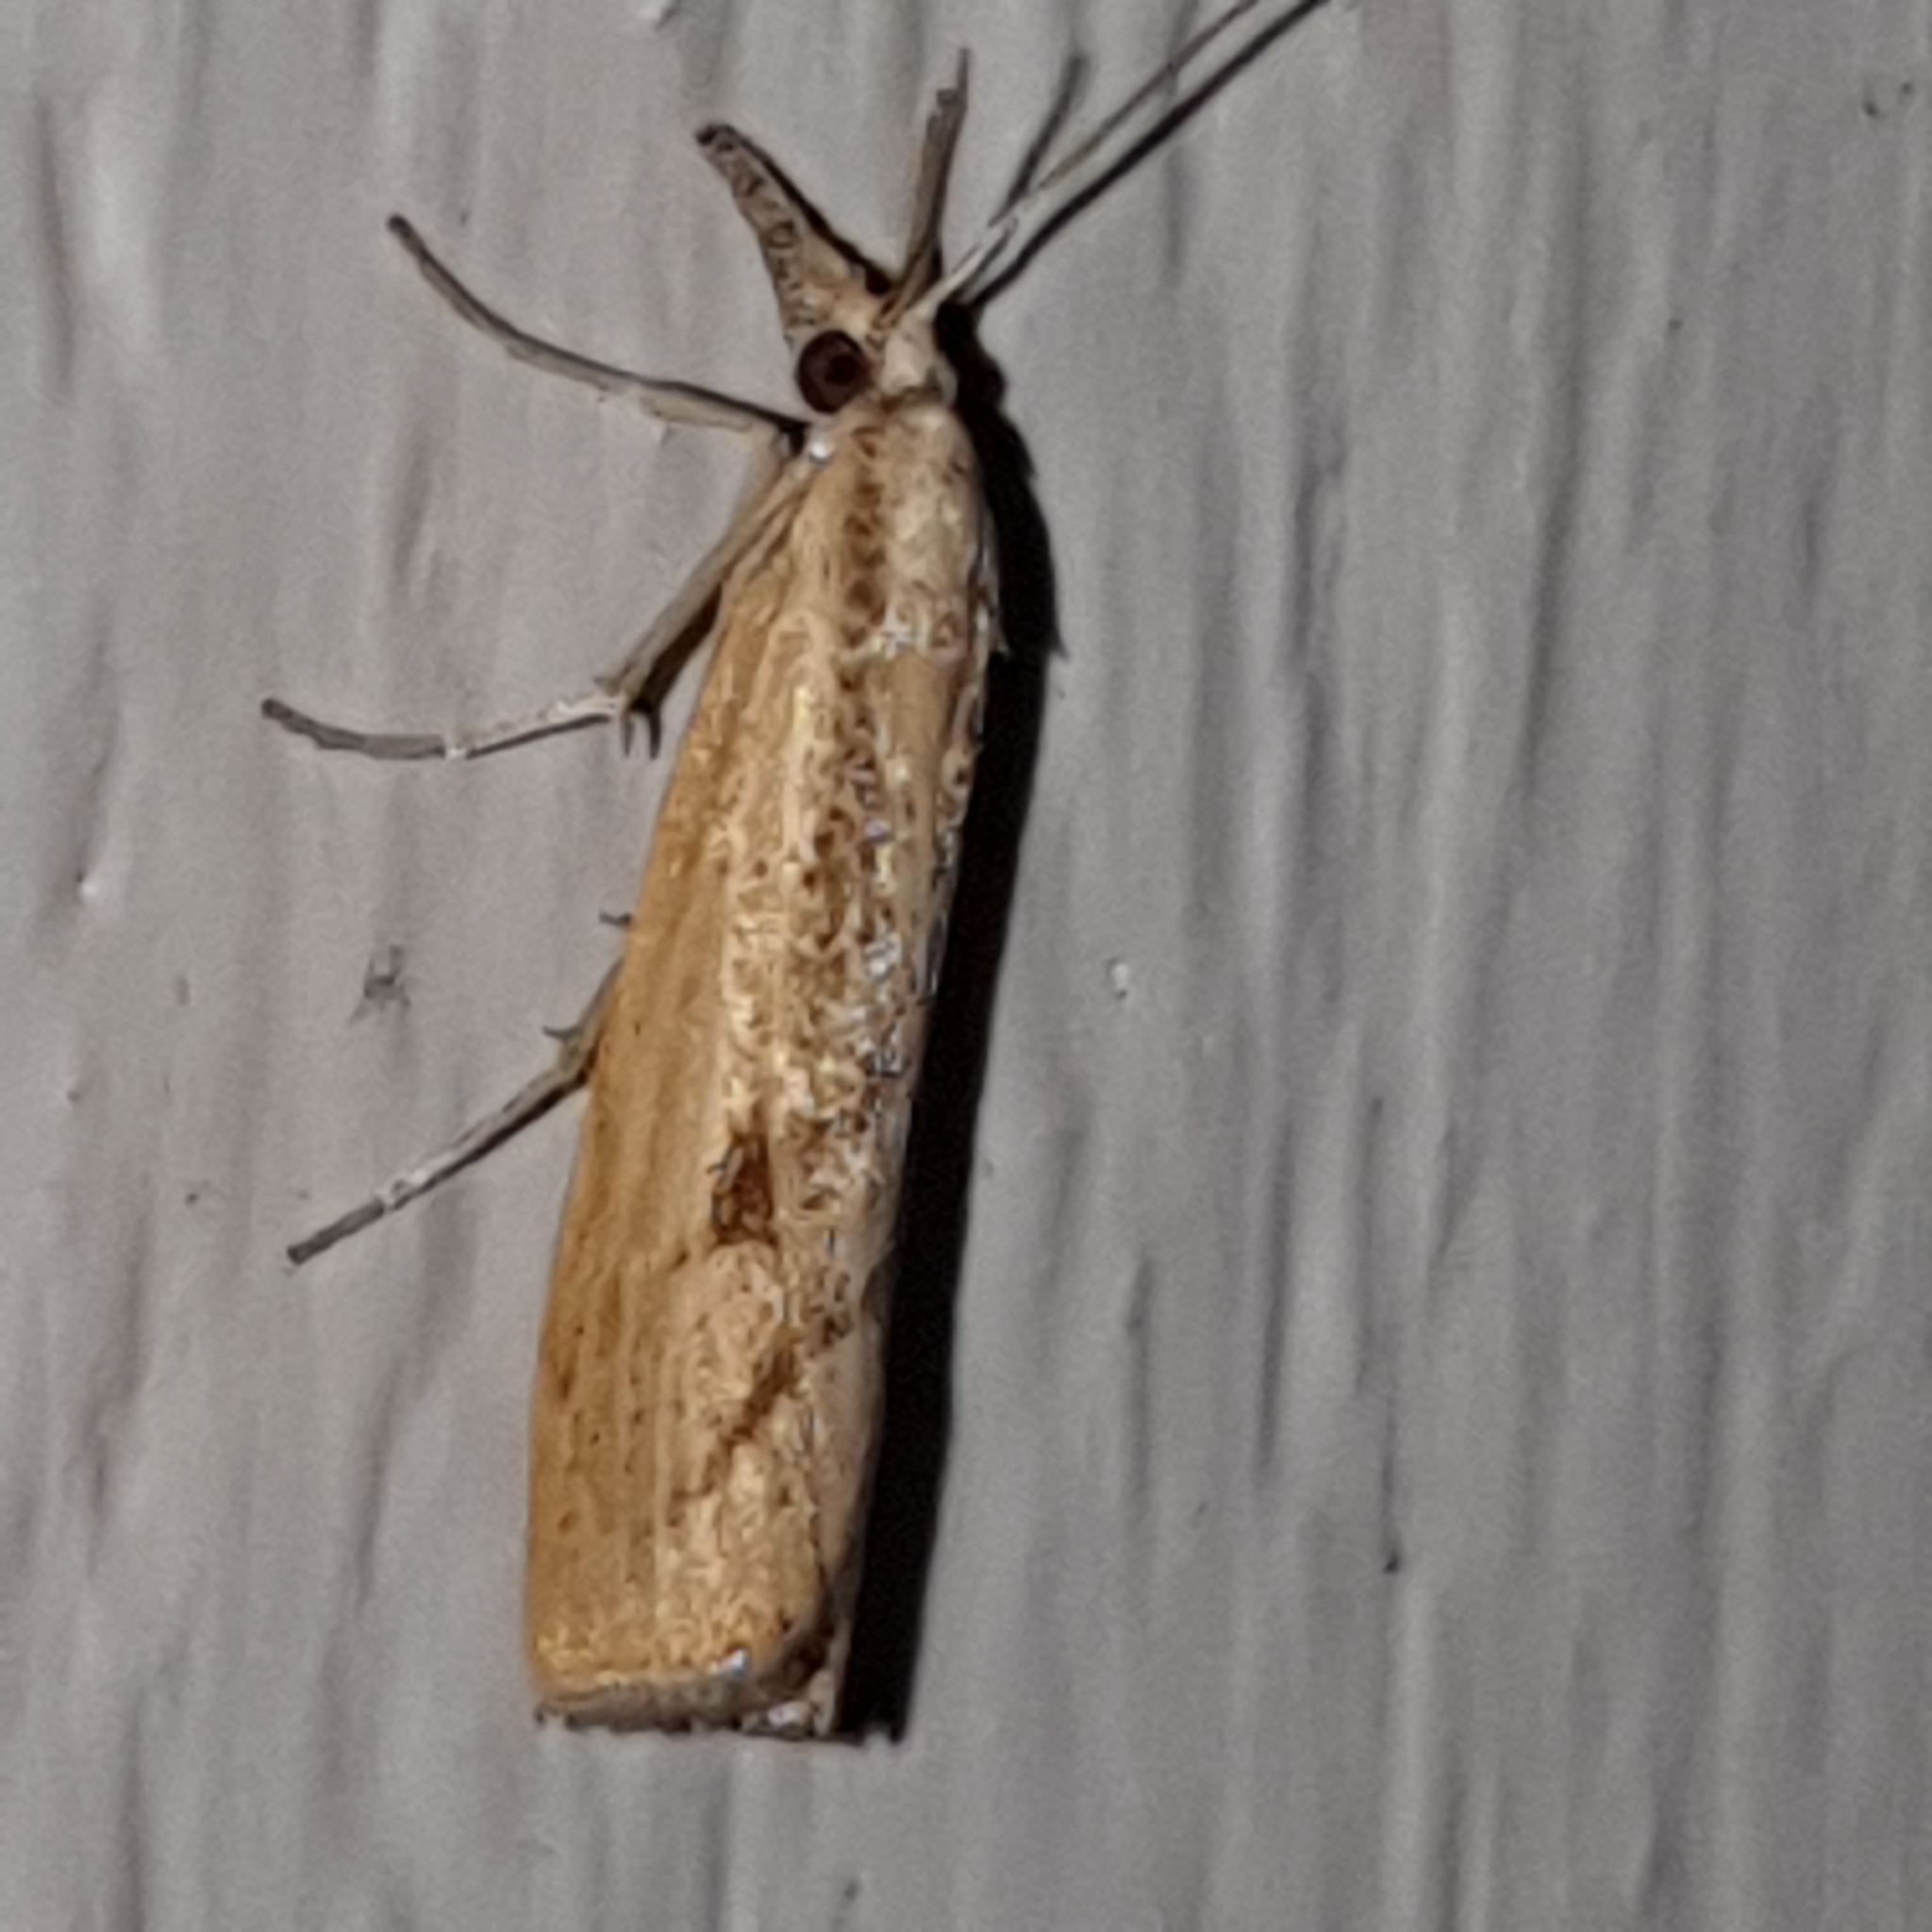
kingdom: Animalia
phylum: Arthropoda
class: Insecta
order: Lepidoptera
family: Crambidae
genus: Agriphila
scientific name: Agriphila inquinatella
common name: Barred grass-veneer
